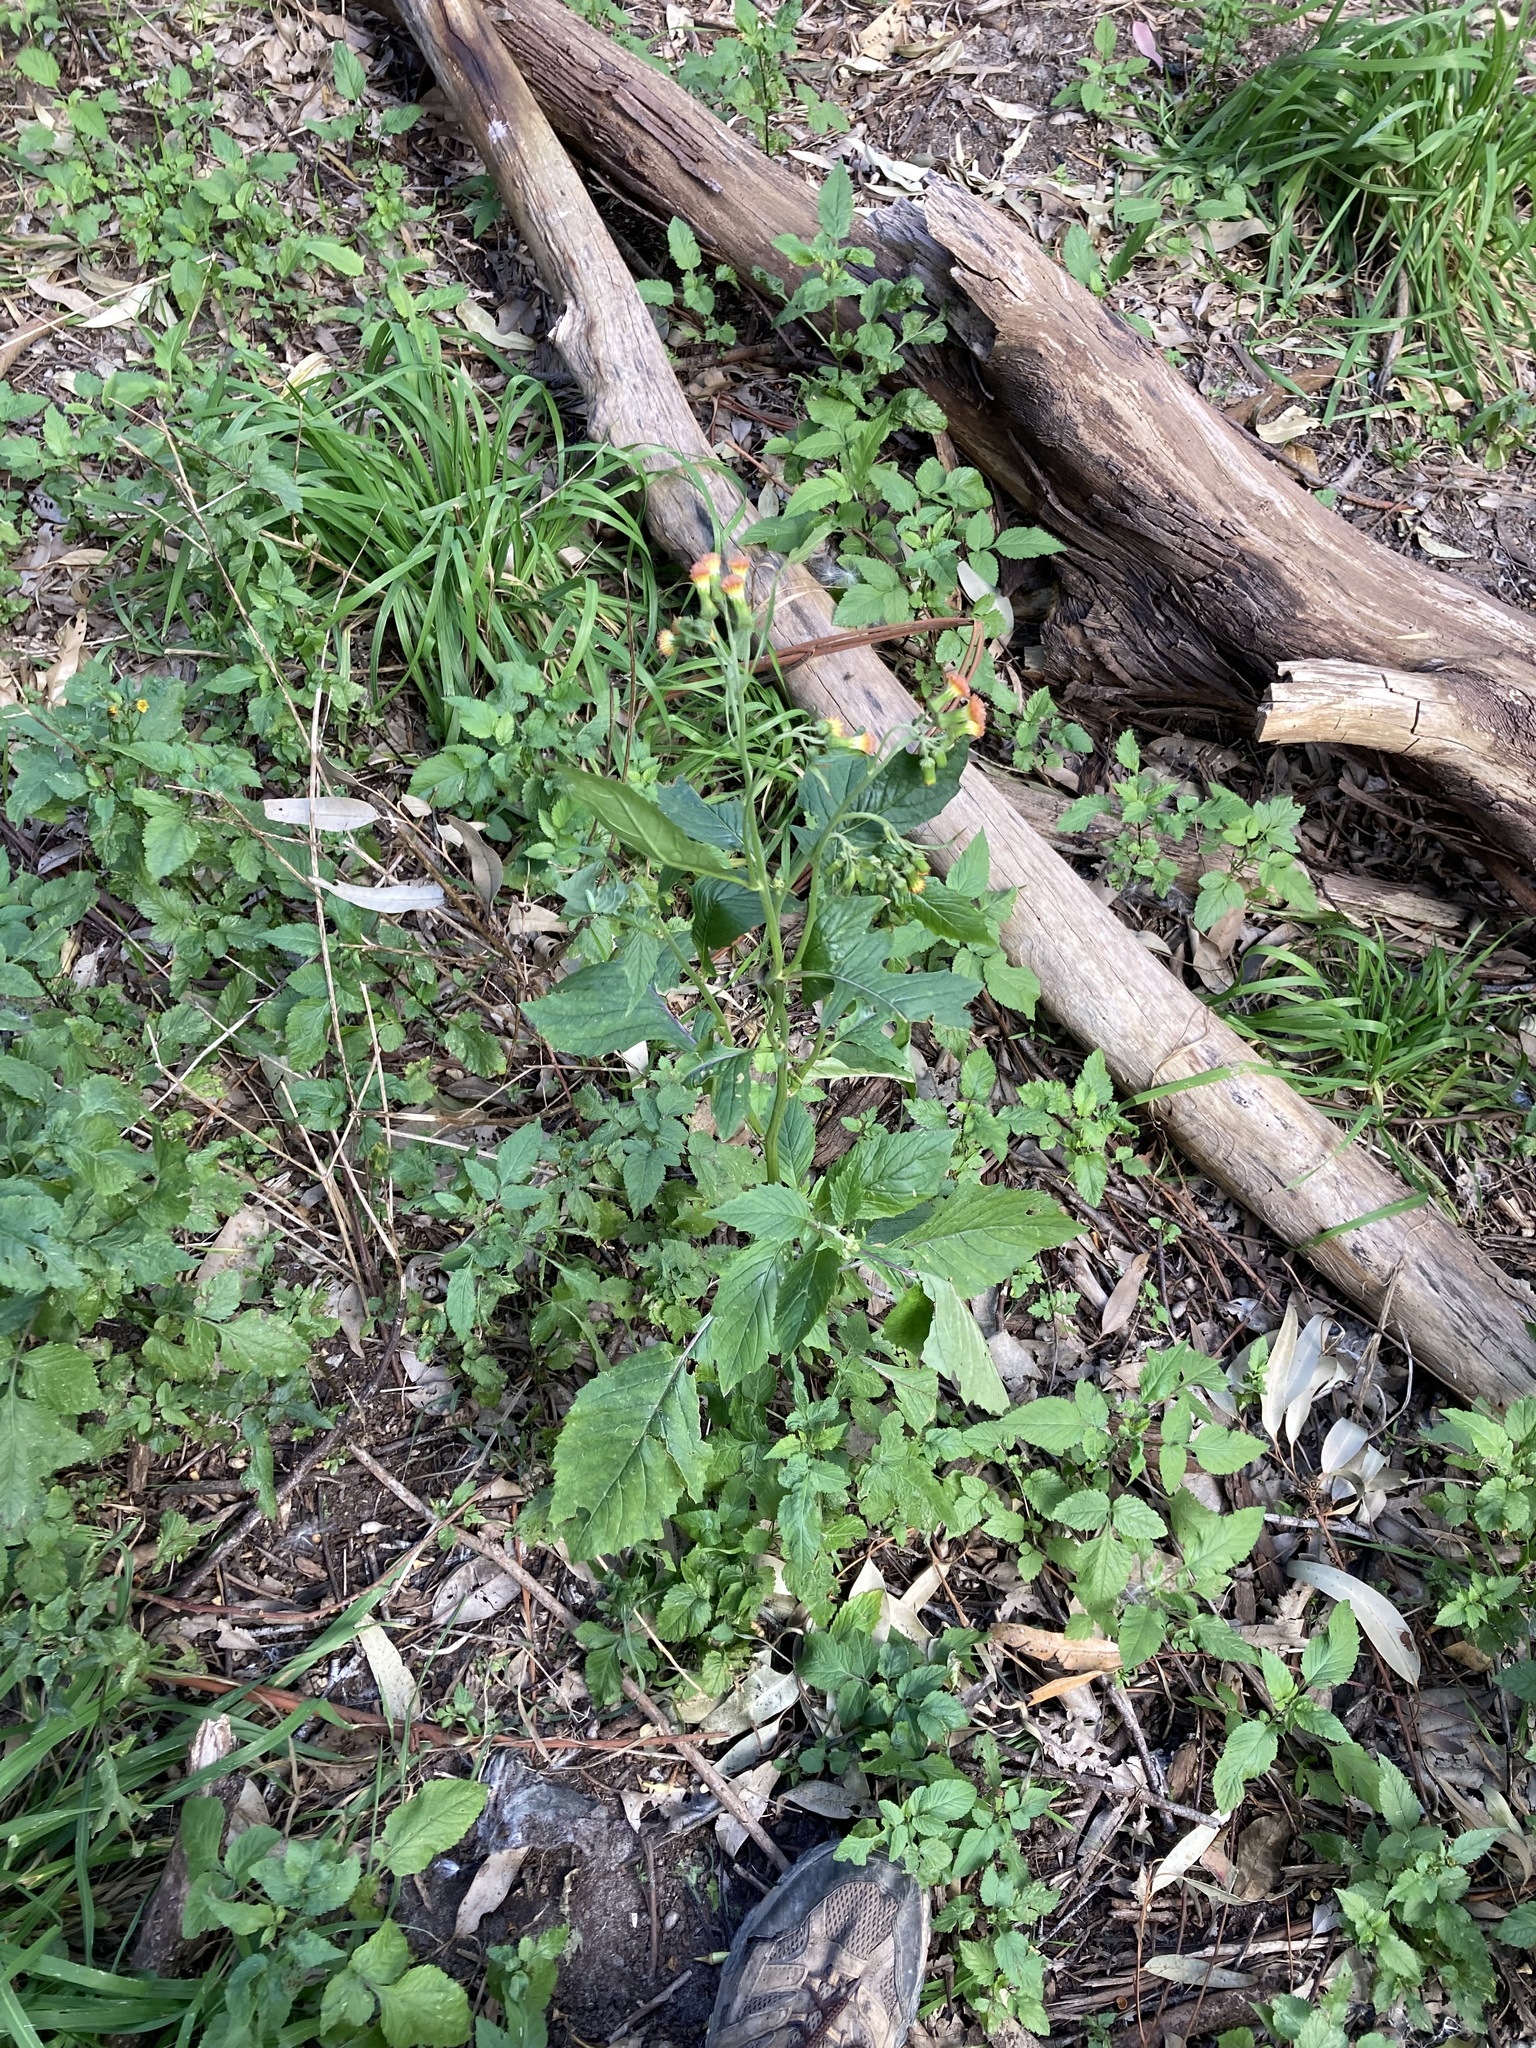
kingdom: Plantae
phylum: Tracheophyta
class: Magnoliopsida
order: Asterales
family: Asteraceae
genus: Crassocephalum
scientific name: Crassocephalum crepidioides
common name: Redflower ragleaf
